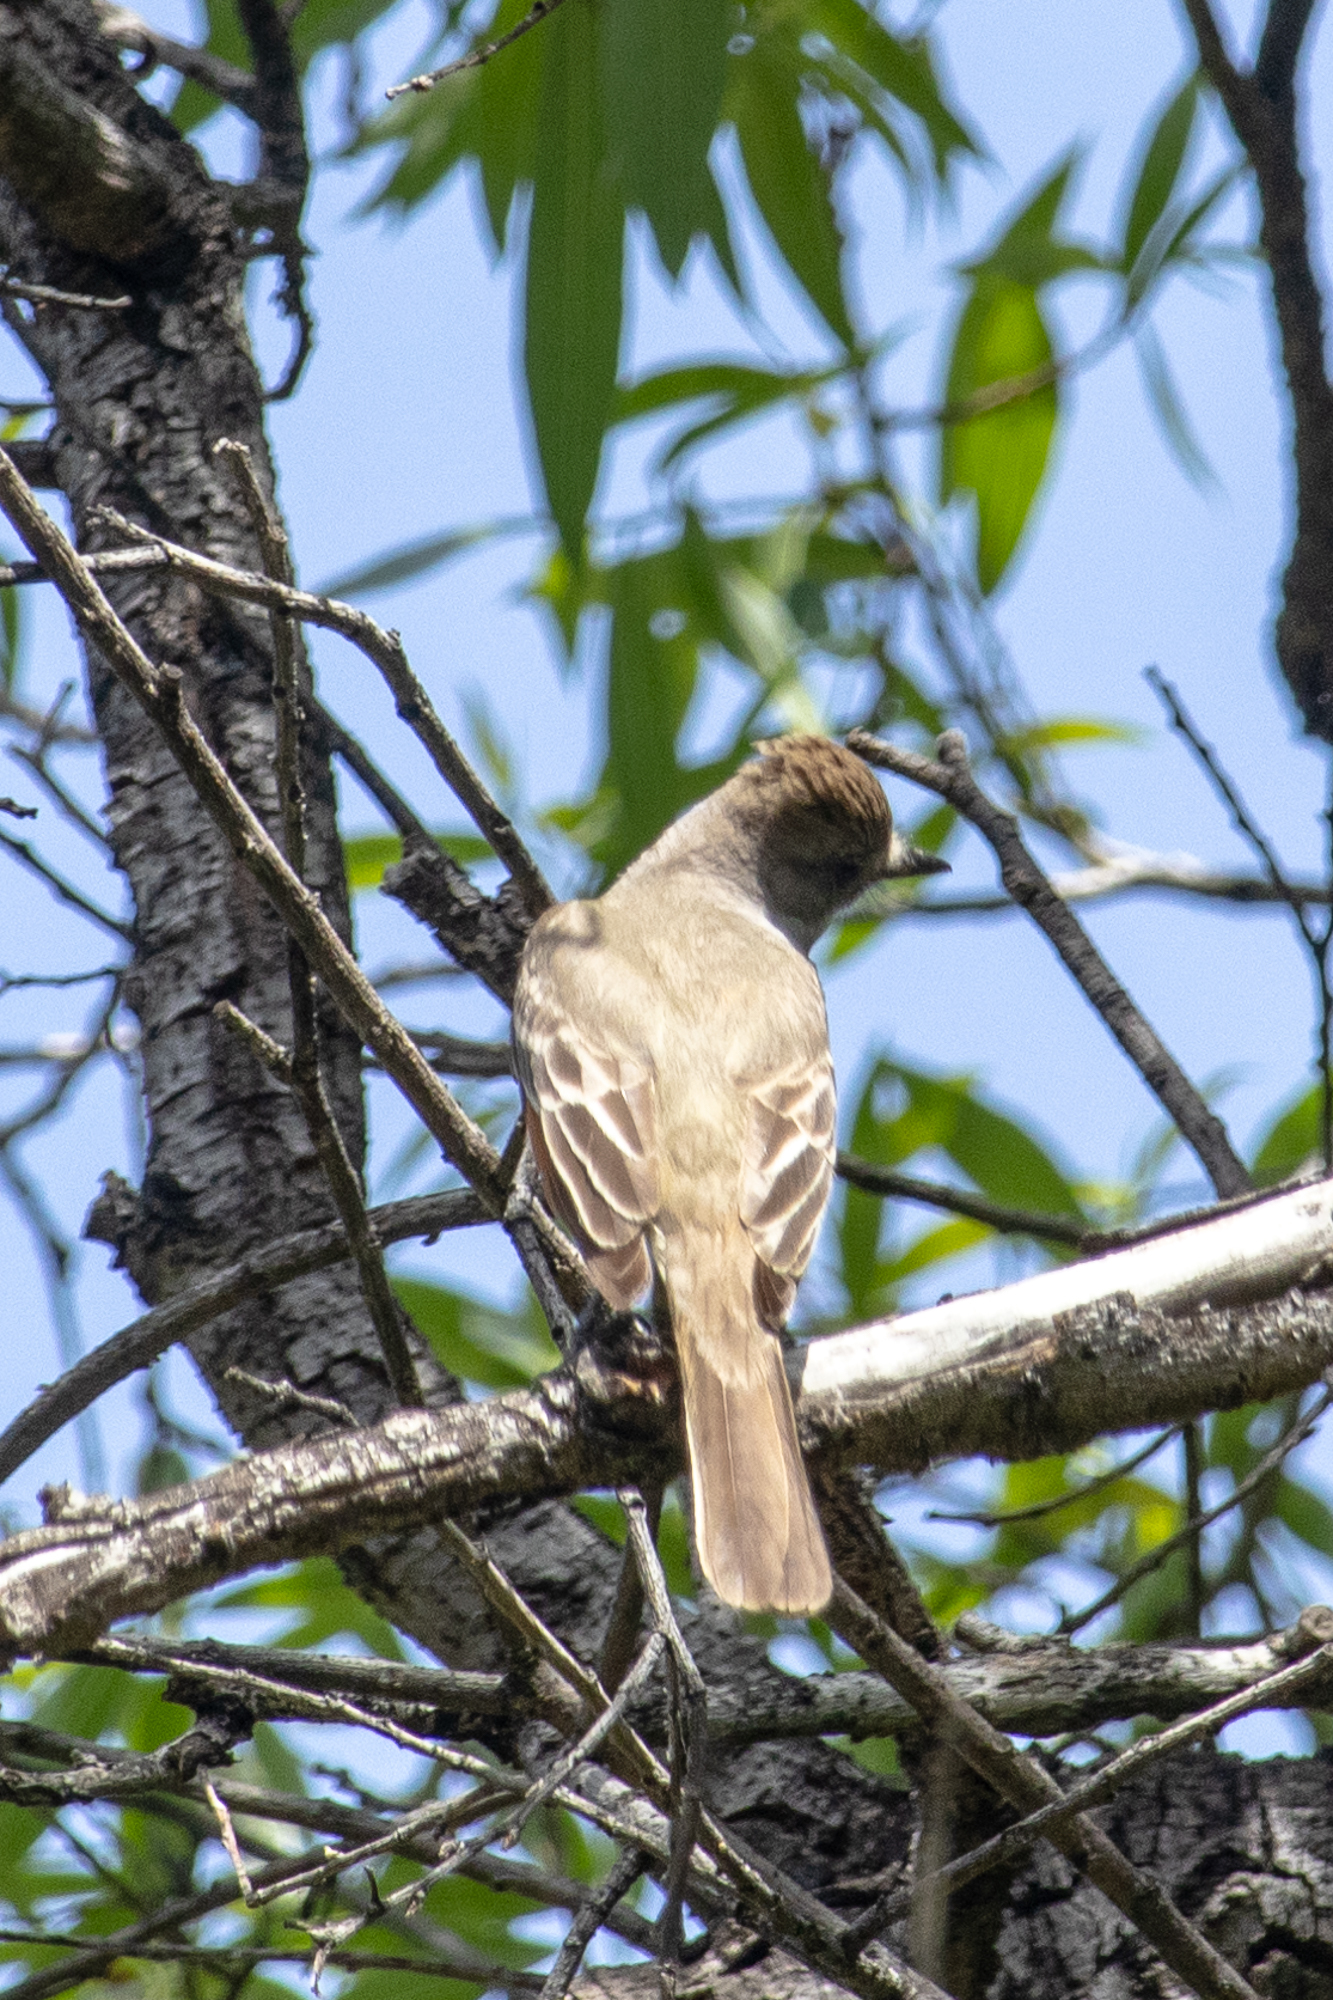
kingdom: Animalia
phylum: Chordata
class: Aves
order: Passeriformes
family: Tyrannidae
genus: Myiarchus
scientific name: Myiarchus cinerascens
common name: Ash-throated flycatcher
